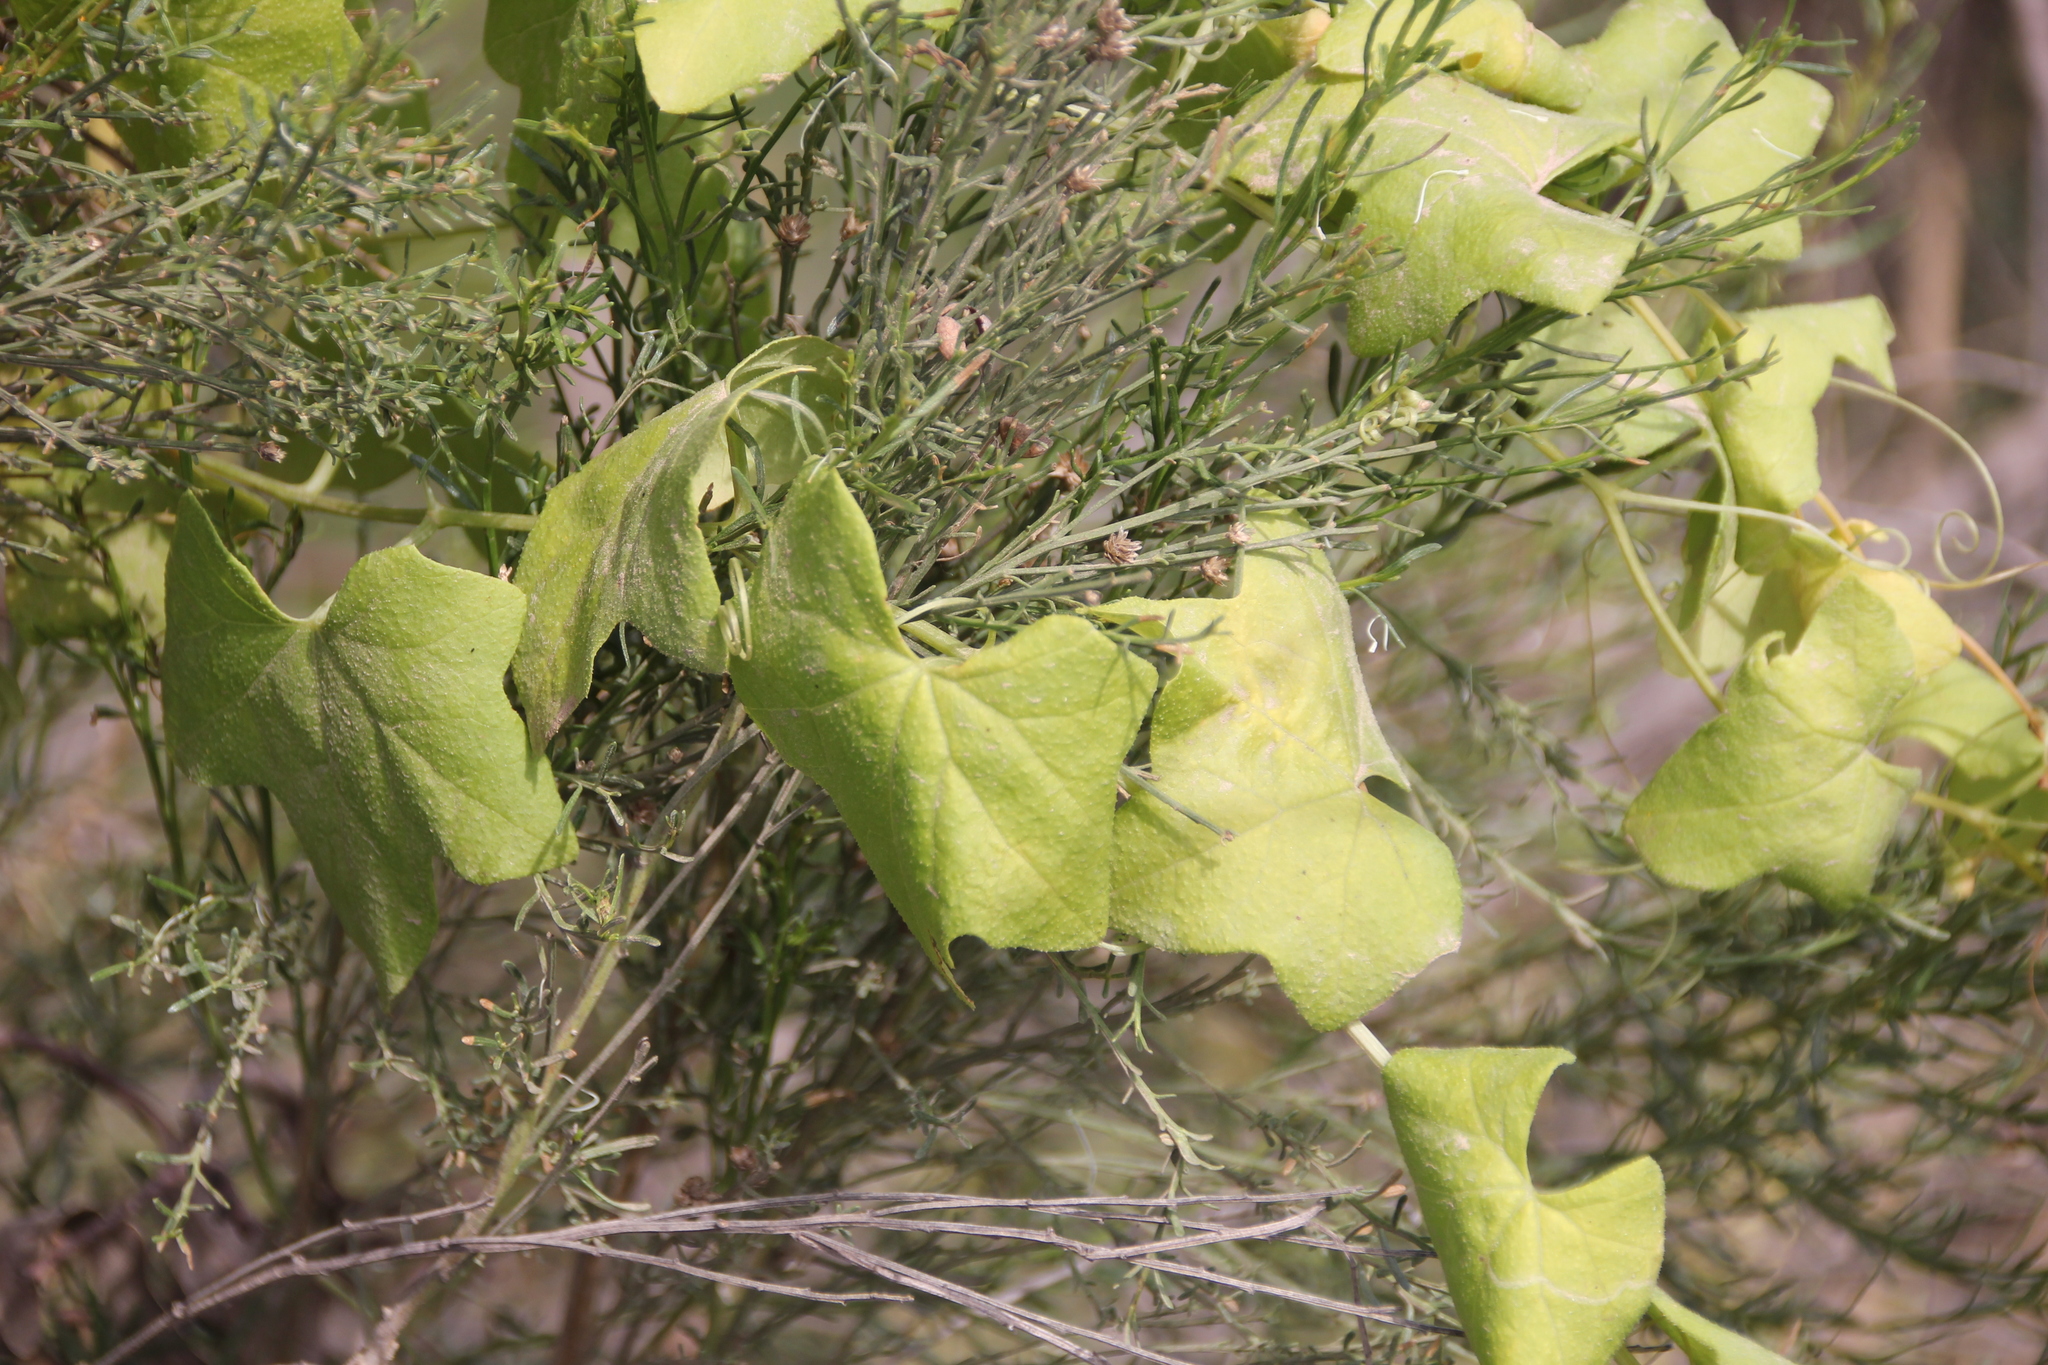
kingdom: Plantae
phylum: Tracheophyta
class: Magnoliopsida
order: Cucurbitales
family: Cucurbitaceae
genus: Marah
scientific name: Marah macrocarpa
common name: Cucamonga manroot
